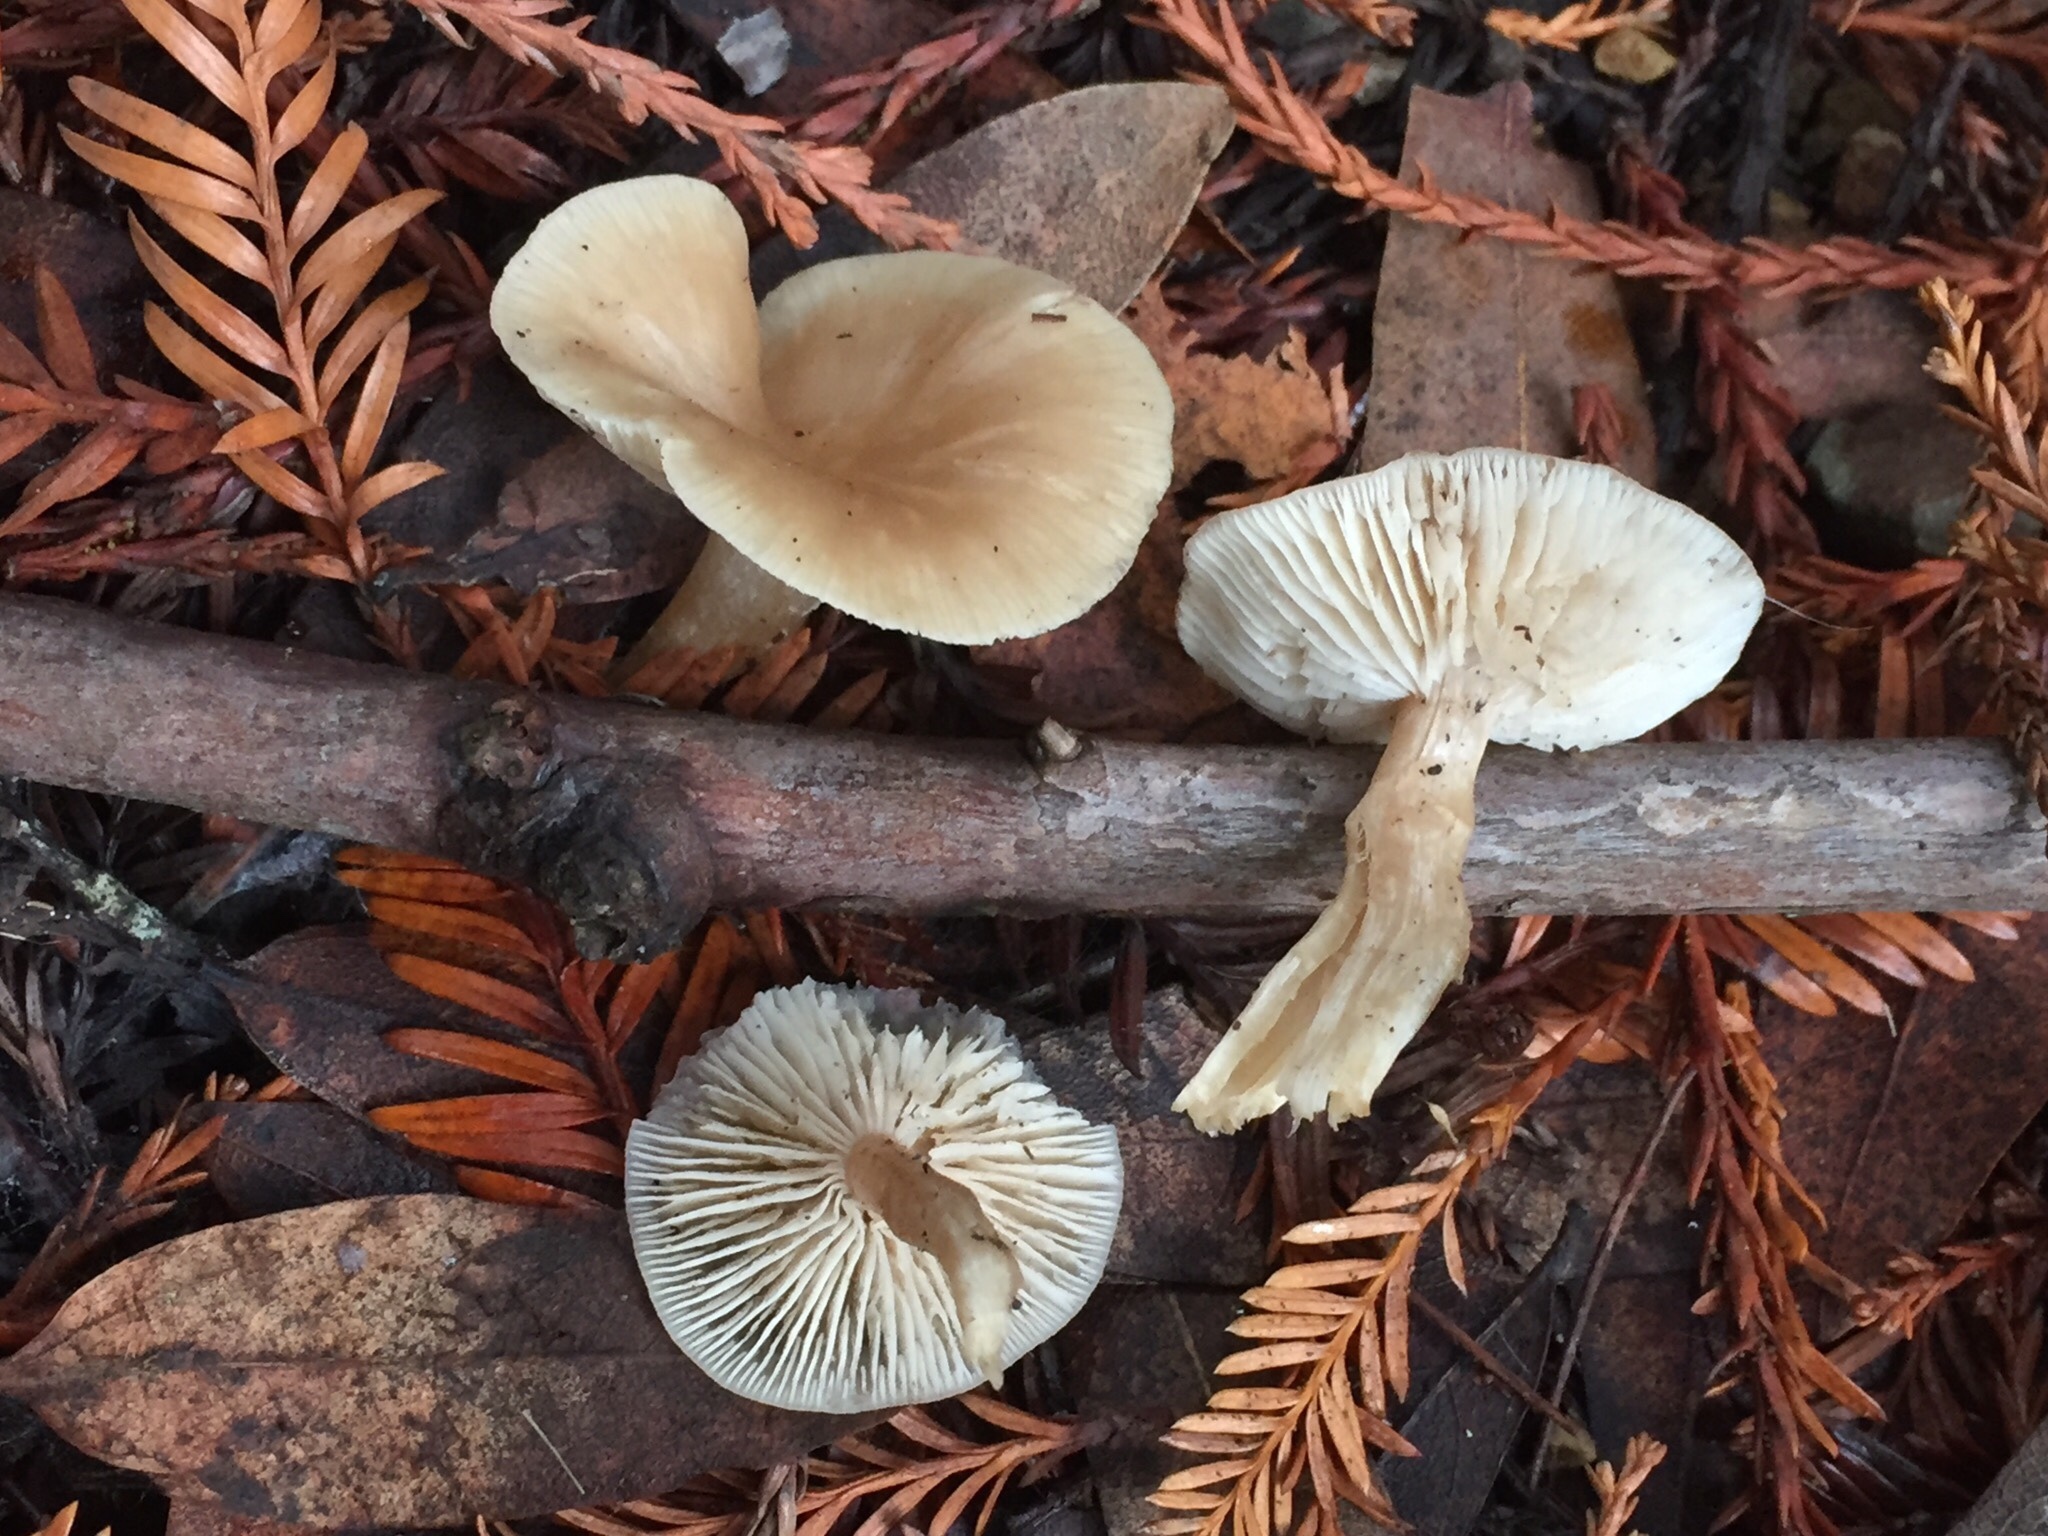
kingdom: Fungi
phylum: Basidiomycota
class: Agaricomycetes
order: Agaricales
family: Tricholomataceae
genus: Clitocybe
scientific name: Clitocybe fragrans
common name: Fragrant funnel
